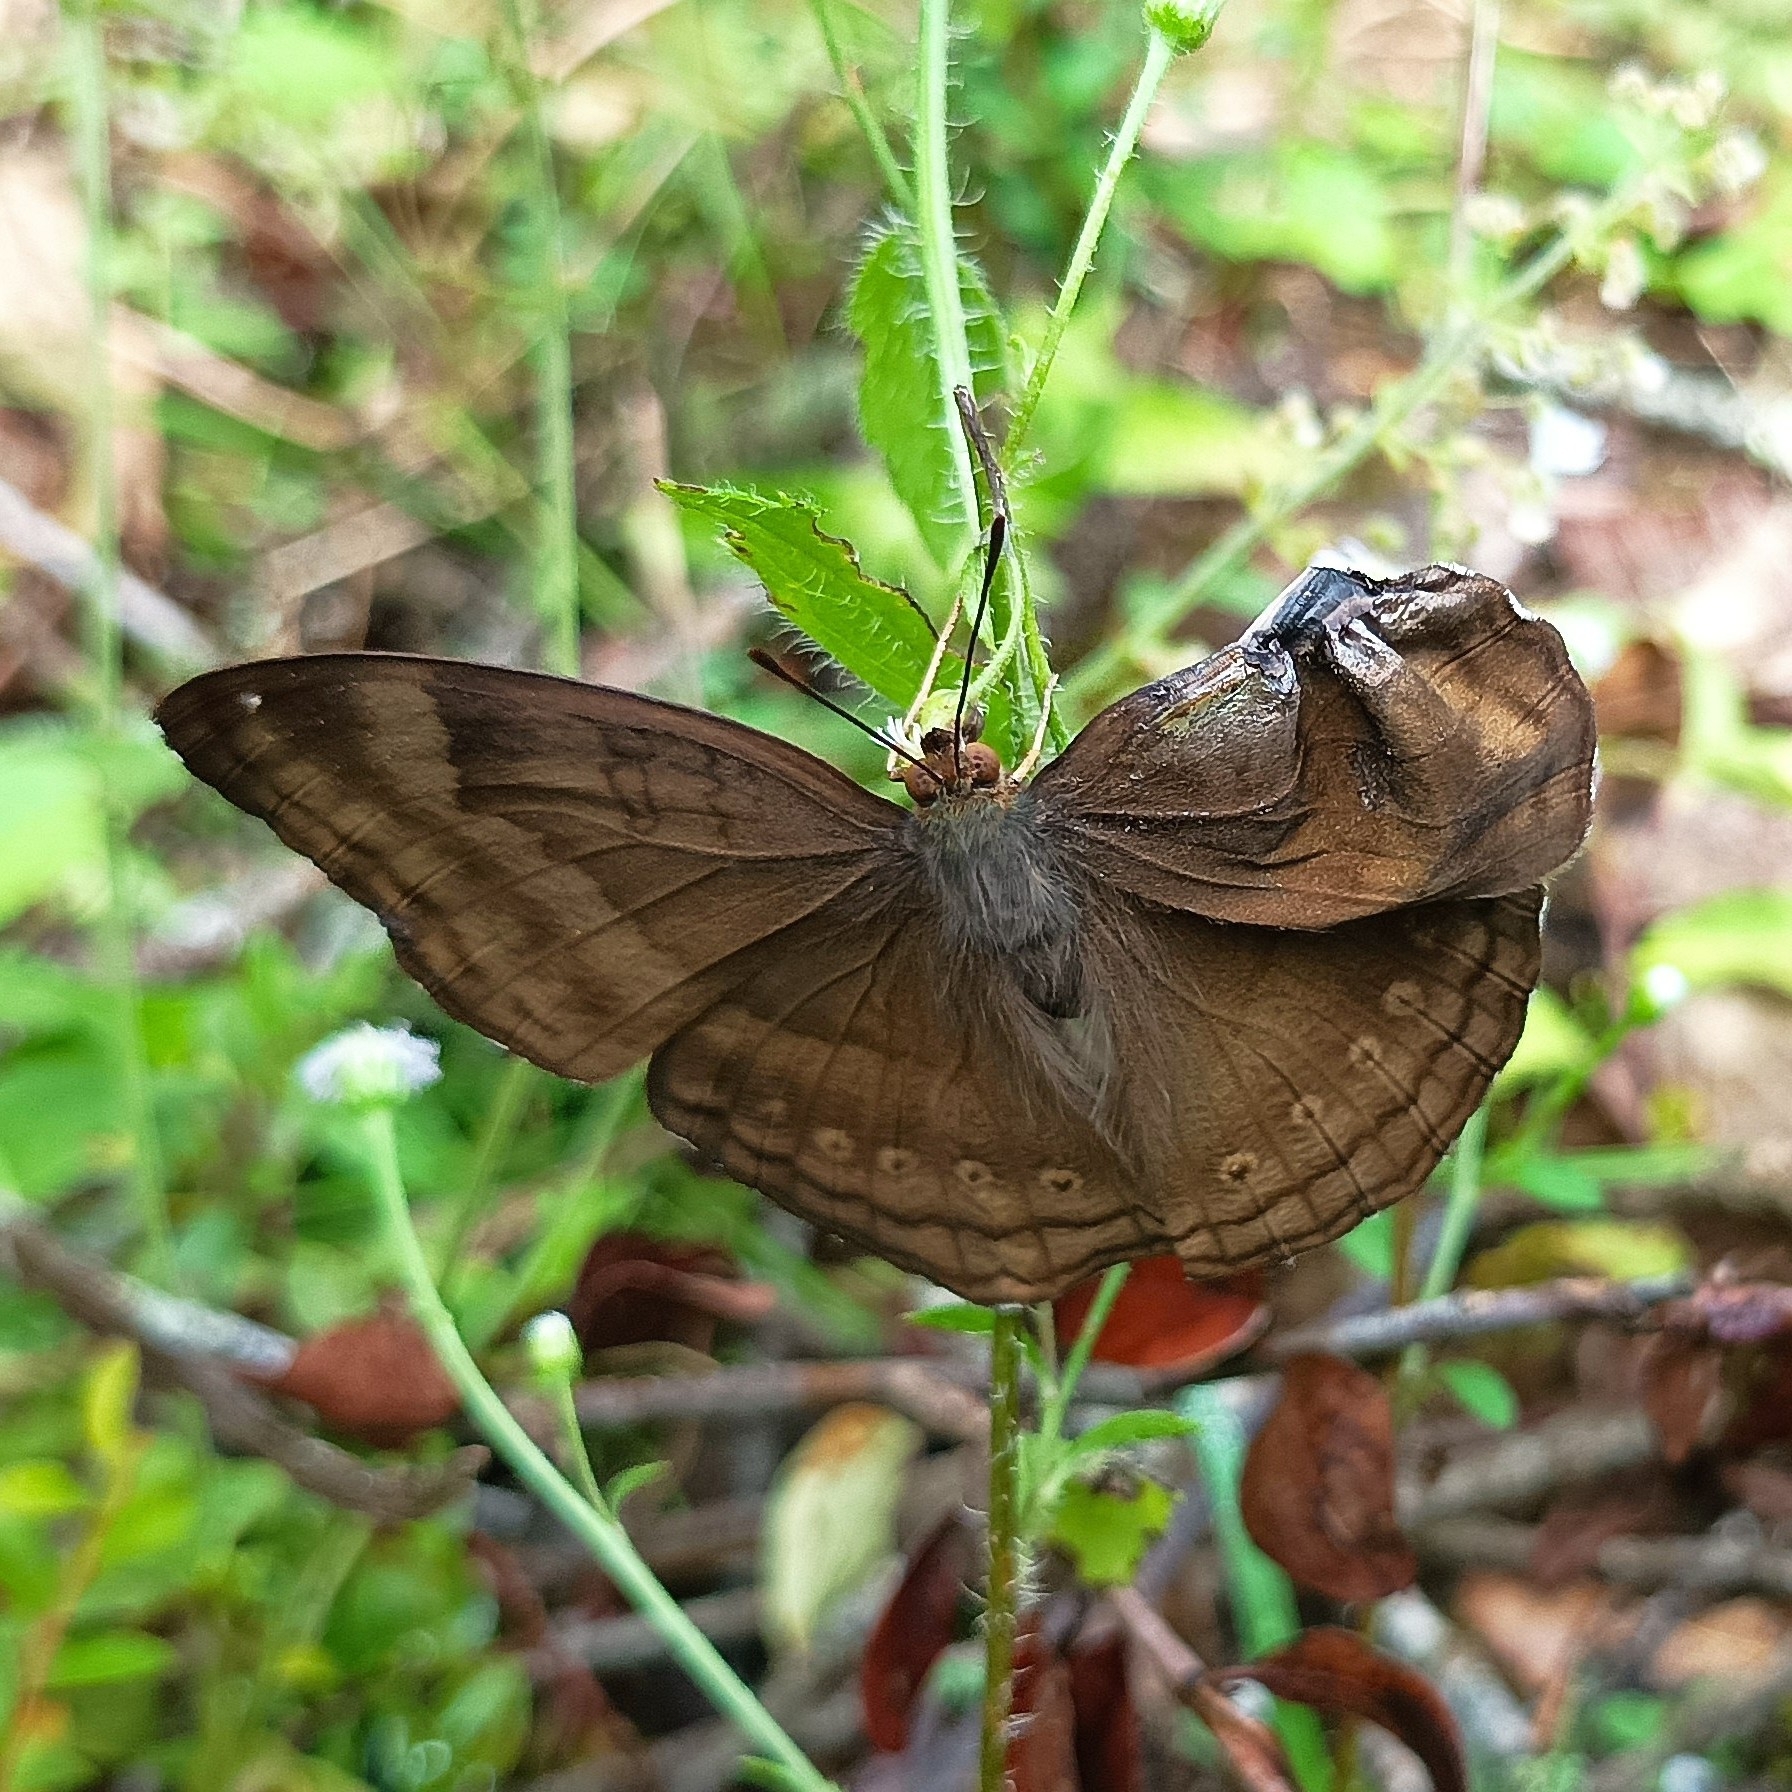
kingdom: Animalia
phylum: Arthropoda
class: Insecta
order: Lepidoptera
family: Nymphalidae
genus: Junonia
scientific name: Junonia iphita
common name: Chocolate pansy
